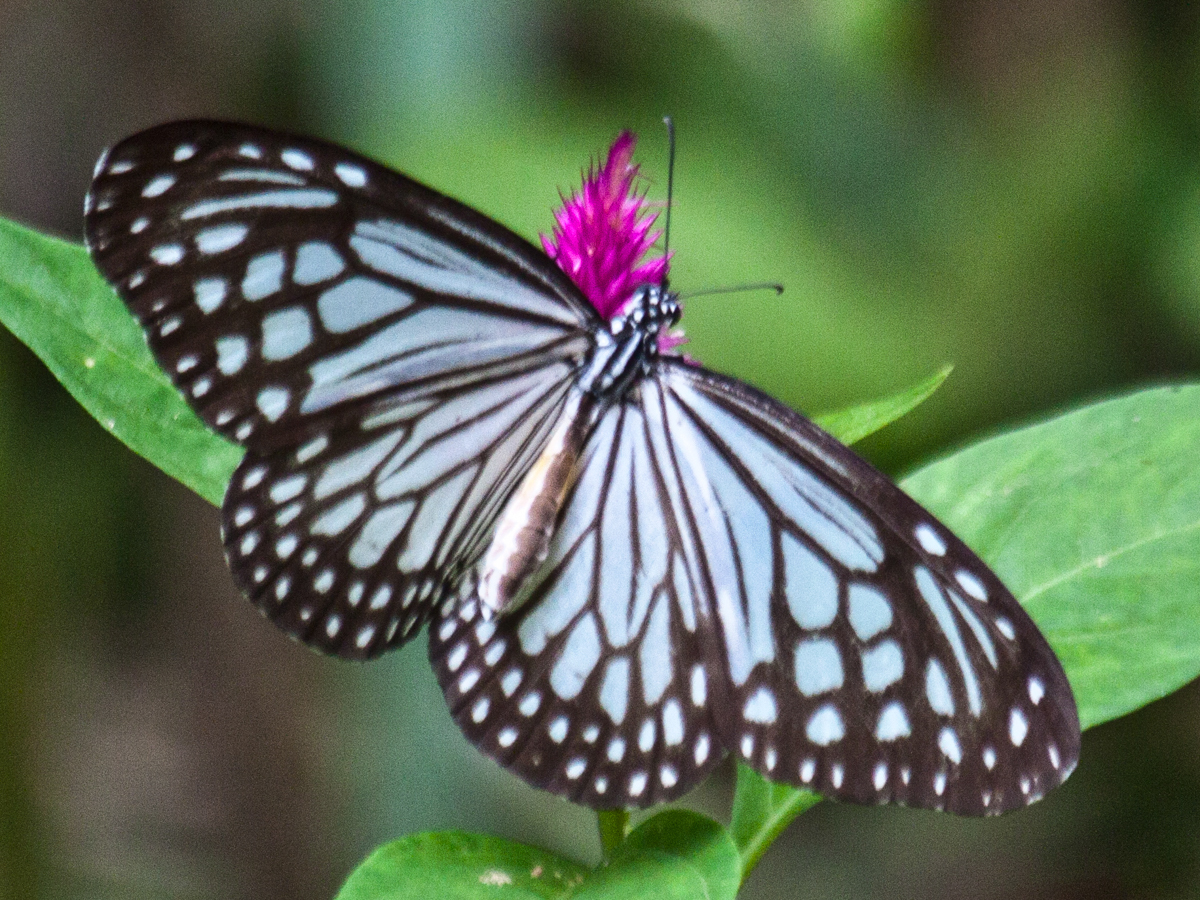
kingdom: Animalia
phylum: Arthropoda
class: Insecta
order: Lepidoptera
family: Nymphalidae
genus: Parantica
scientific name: Parantica aglea
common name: Glassy tiger
